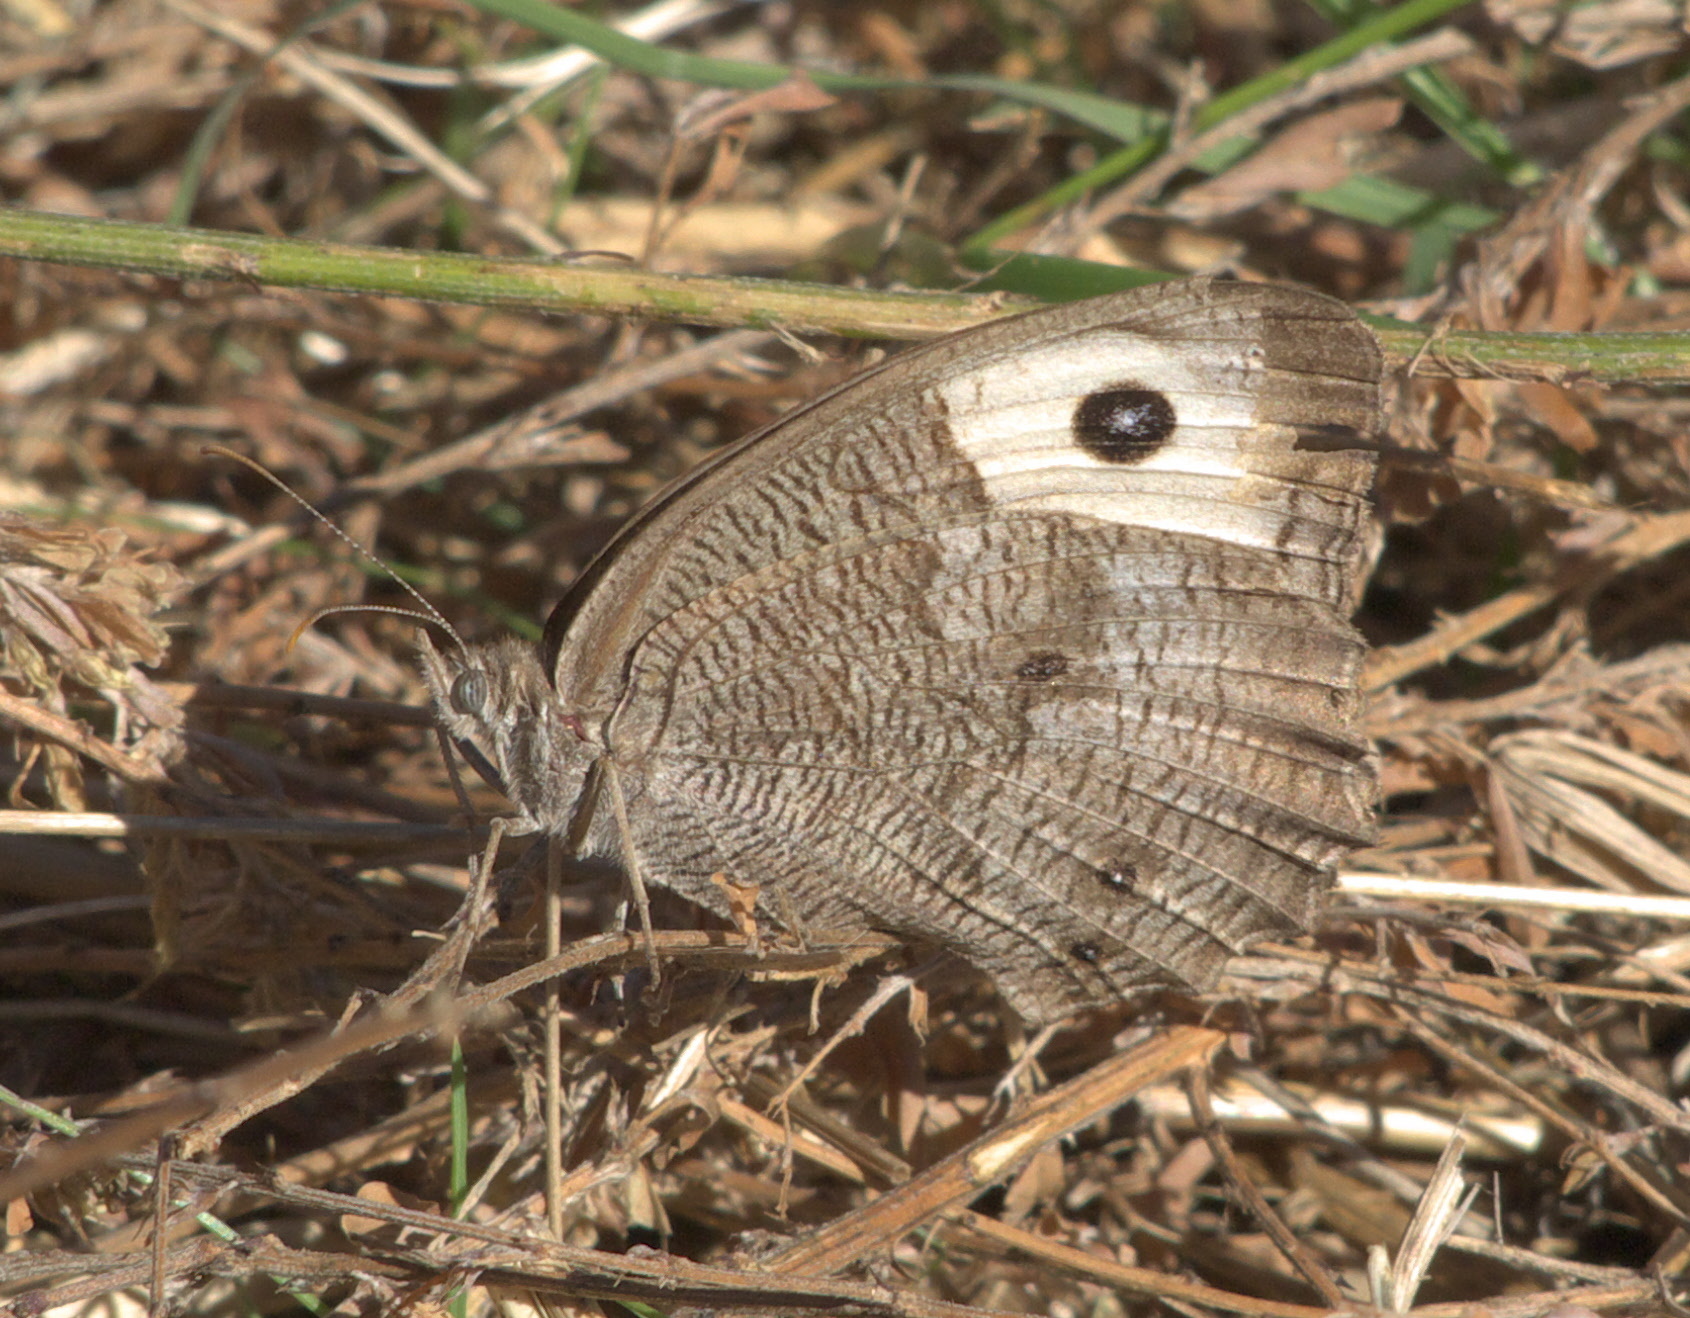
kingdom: Animalia
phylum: Arthropoda
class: Insecta
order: Lepidoptera
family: Nymphalidae
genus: Cercyonis
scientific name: Cercyonis pegala
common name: Common wood-nymph
